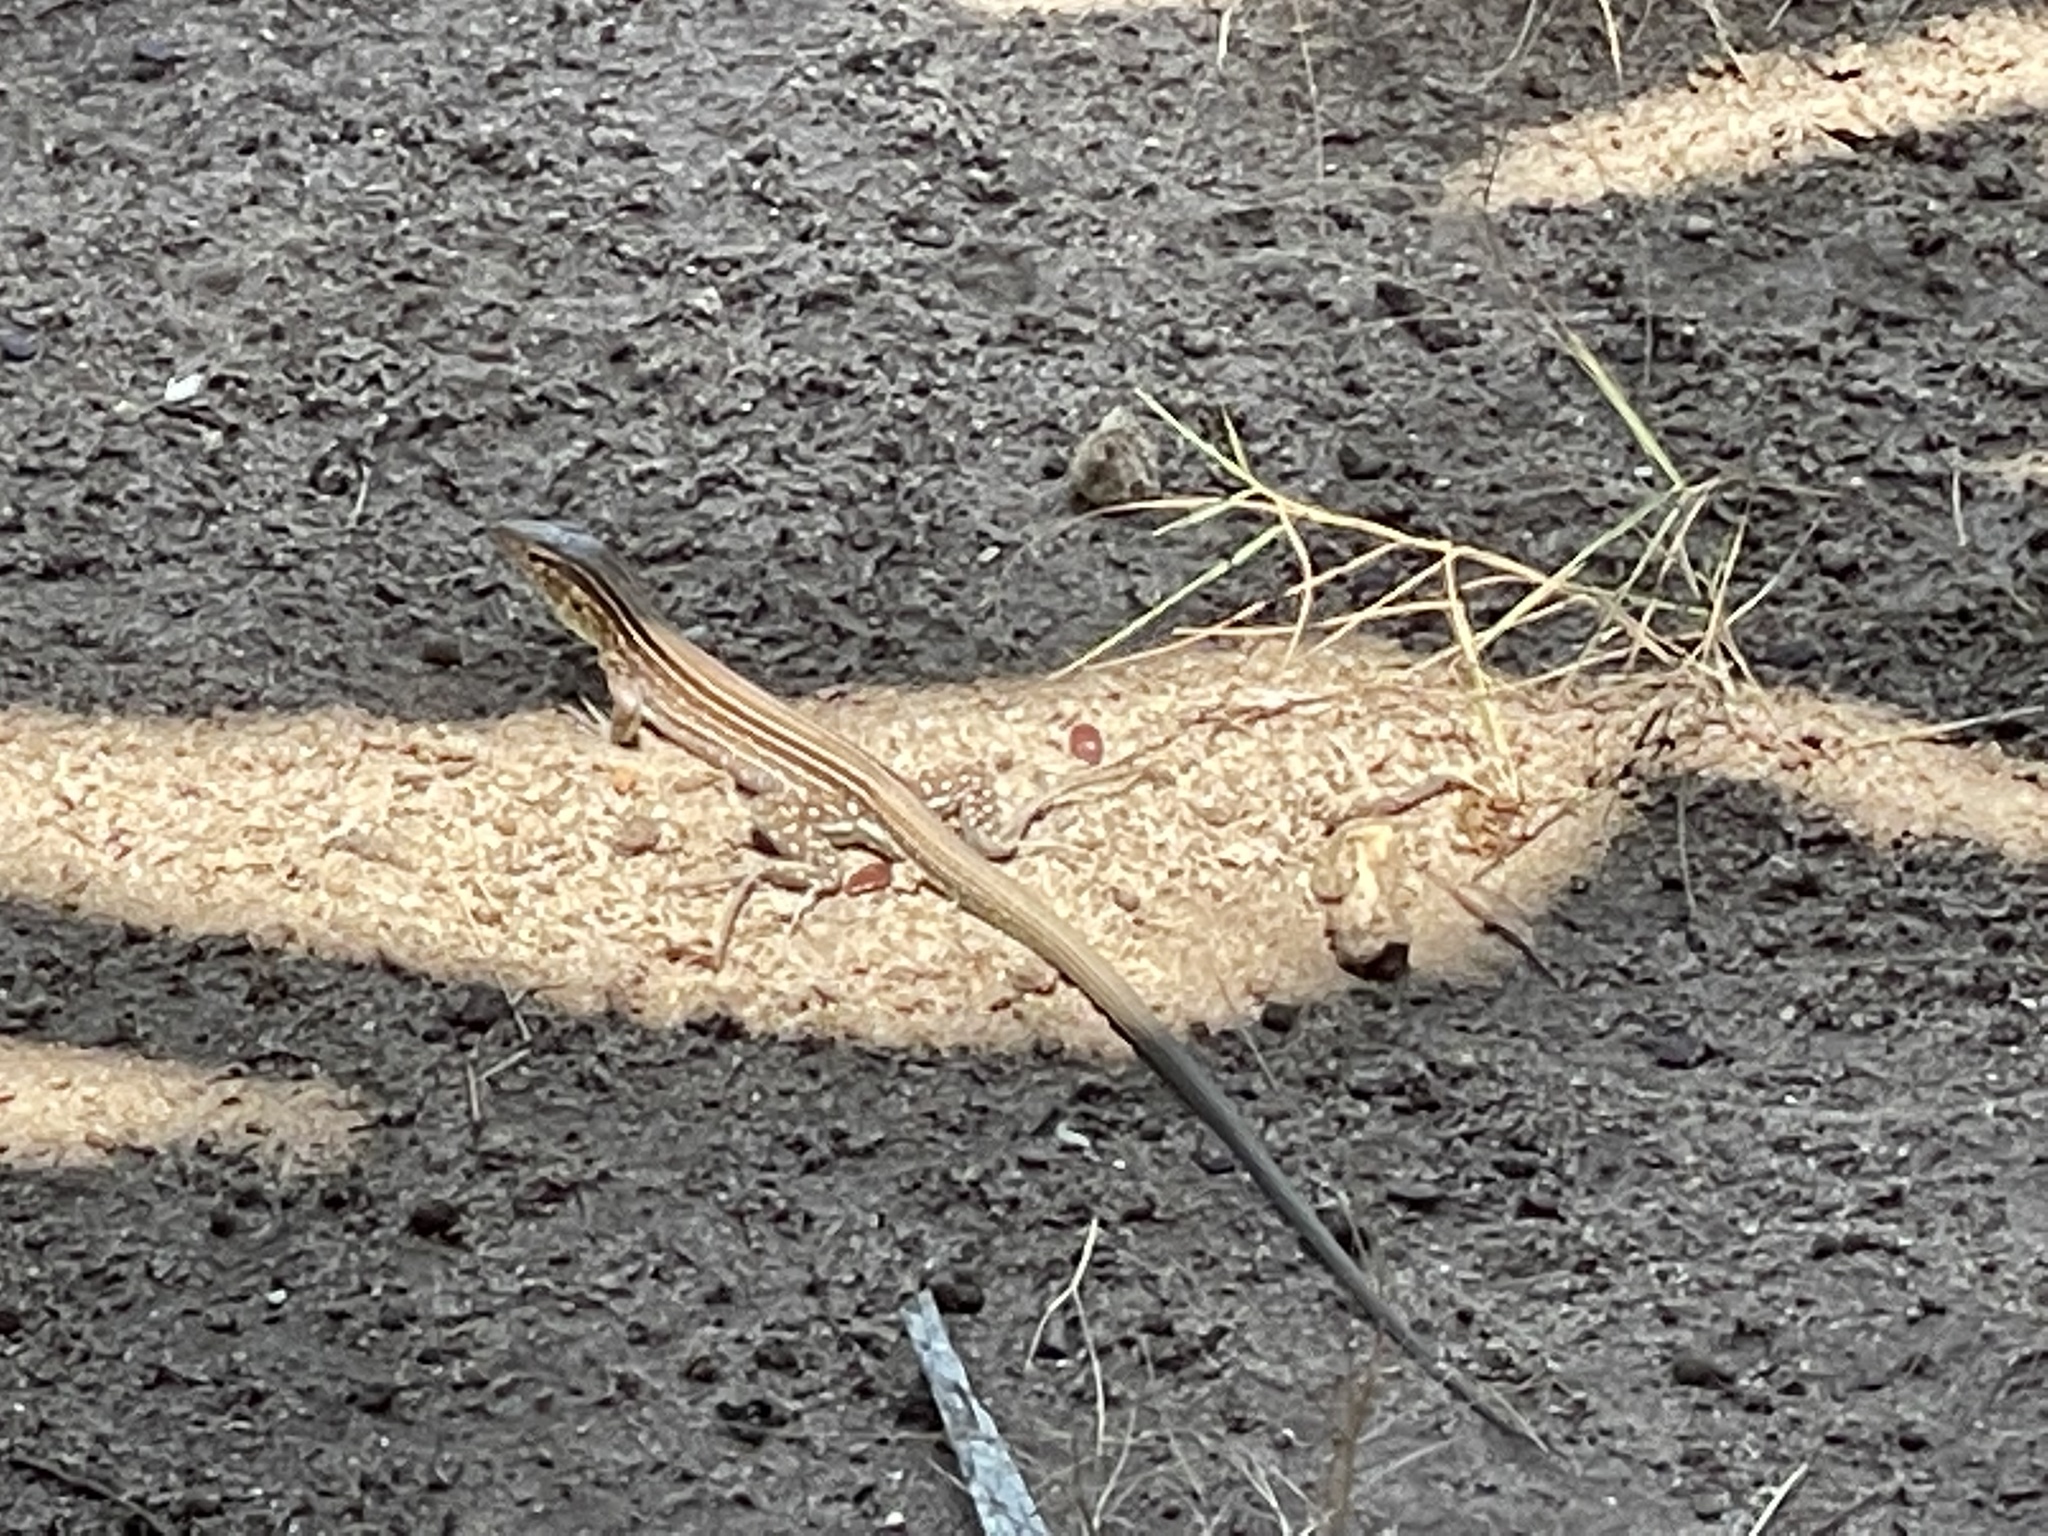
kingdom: Animalia
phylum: Chordata
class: Squamata
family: Teiidae
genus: Cnemidophorus
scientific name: Cnemidophorus gaigei
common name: Gaige’s rainbow lizard
